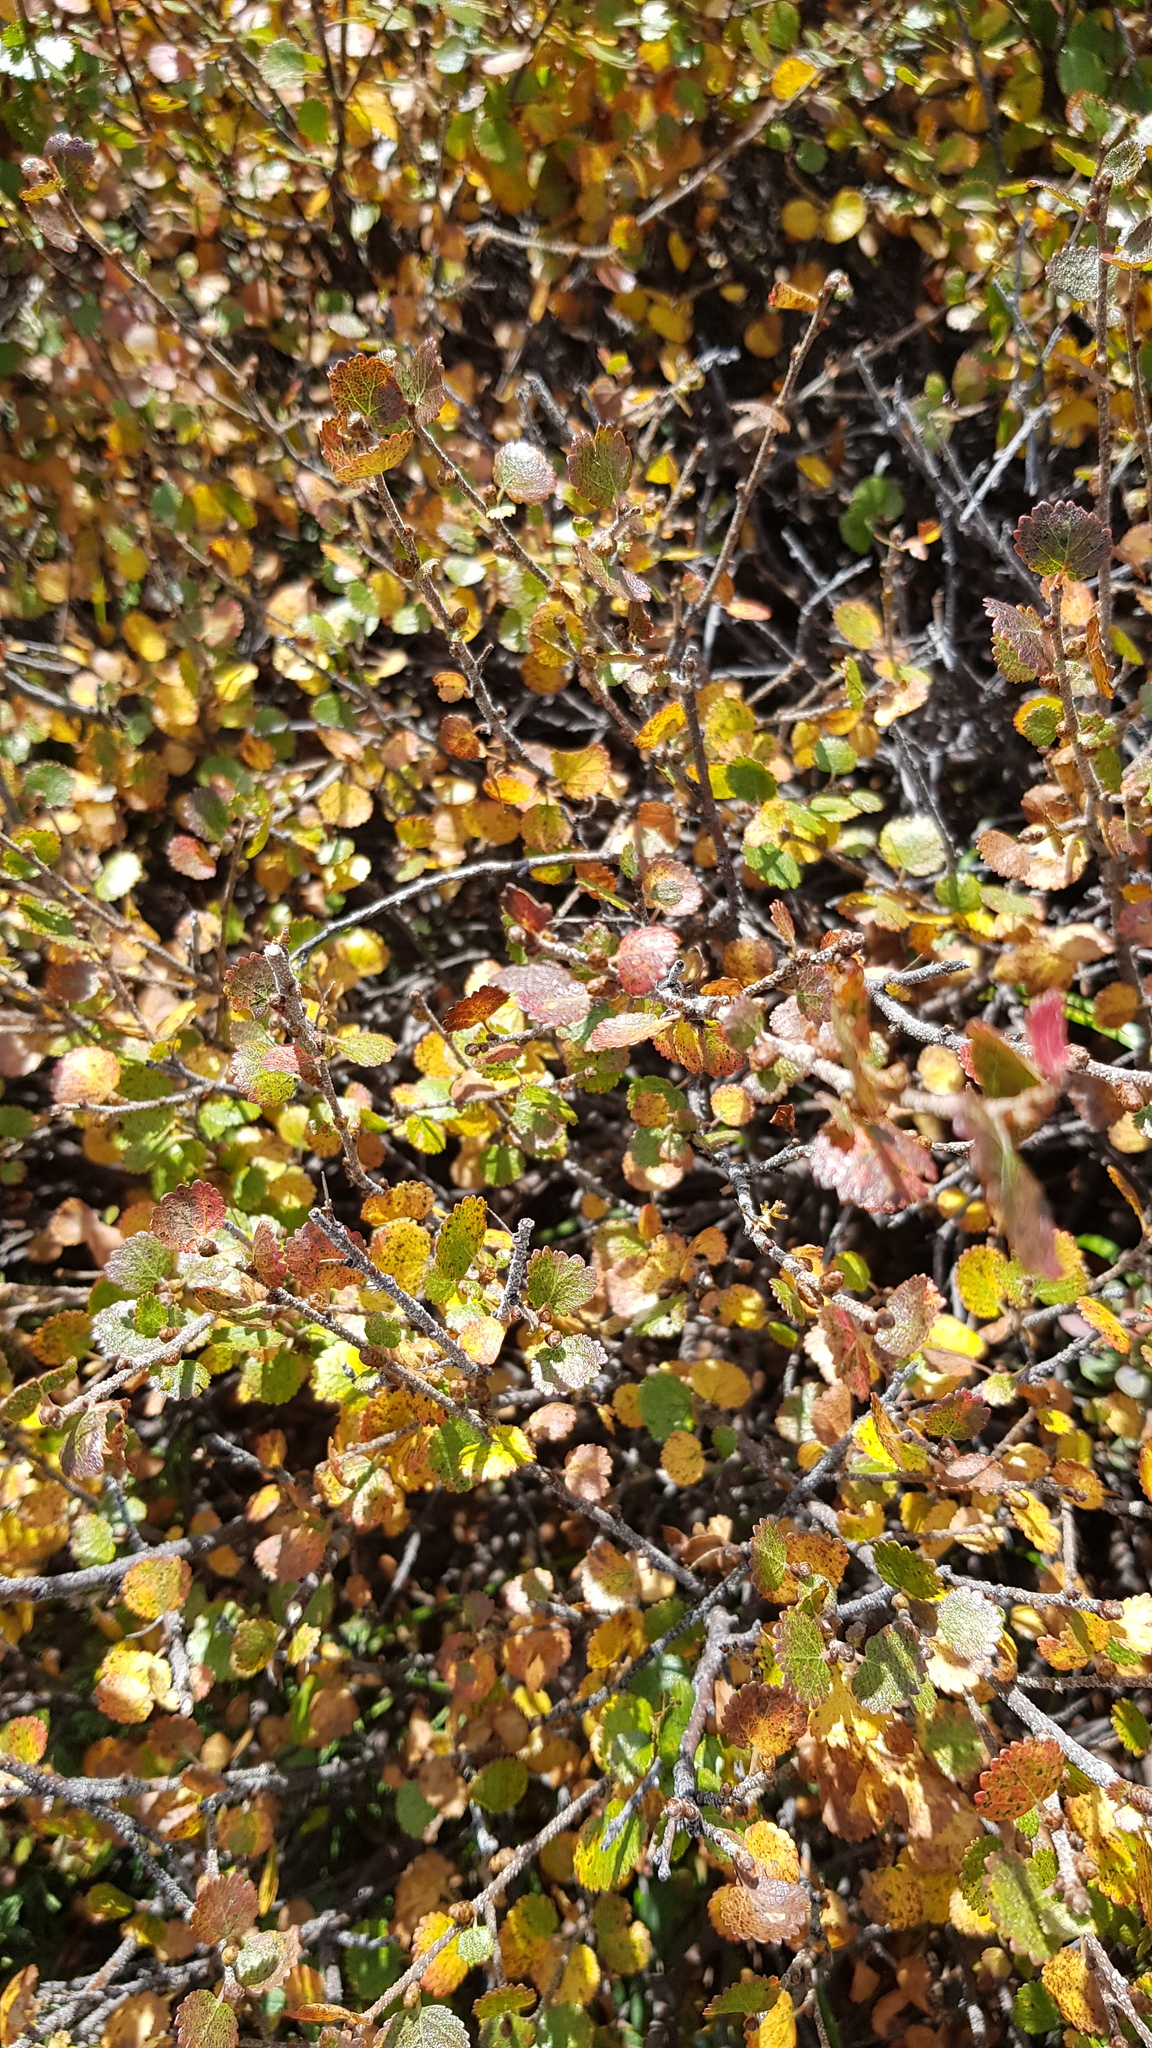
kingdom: Plantae
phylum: Tracheophyta
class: Magnoliopsida
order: Fagales
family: Betulaceae
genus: Betula
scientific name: Betula glandulosa
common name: Dwarf birch
